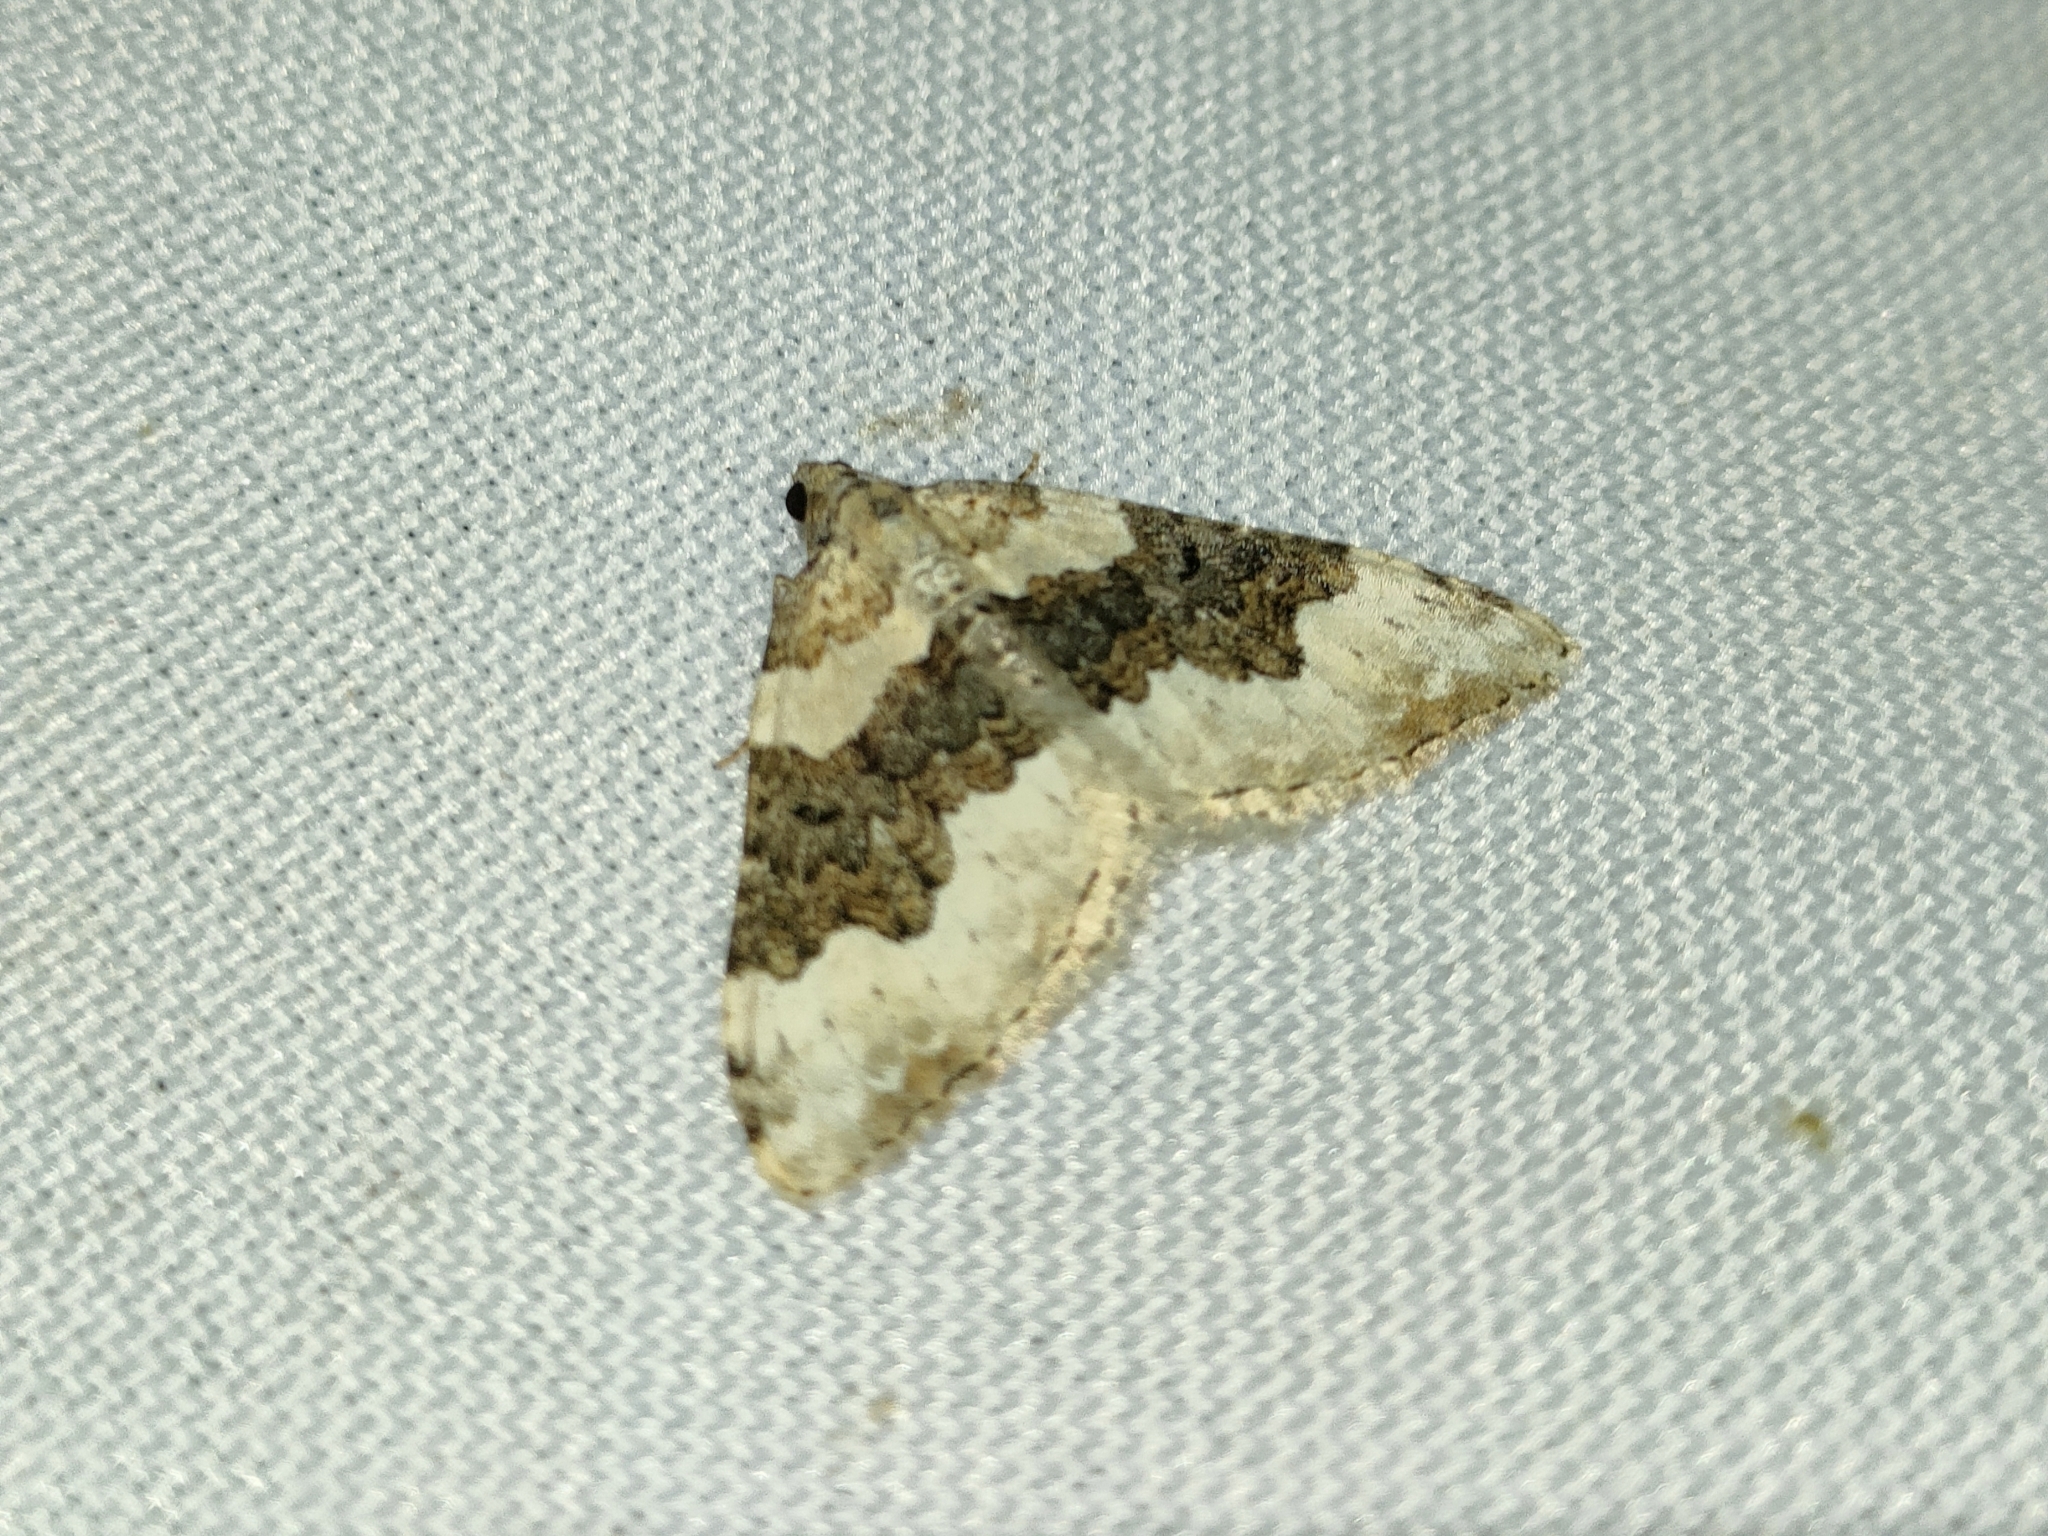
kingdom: Animalia
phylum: Arthropoda
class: Insecta
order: Lepidoptera
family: Geometridae
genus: Epirrhoe
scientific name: Epirrhoe galiata
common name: Galium carpet
